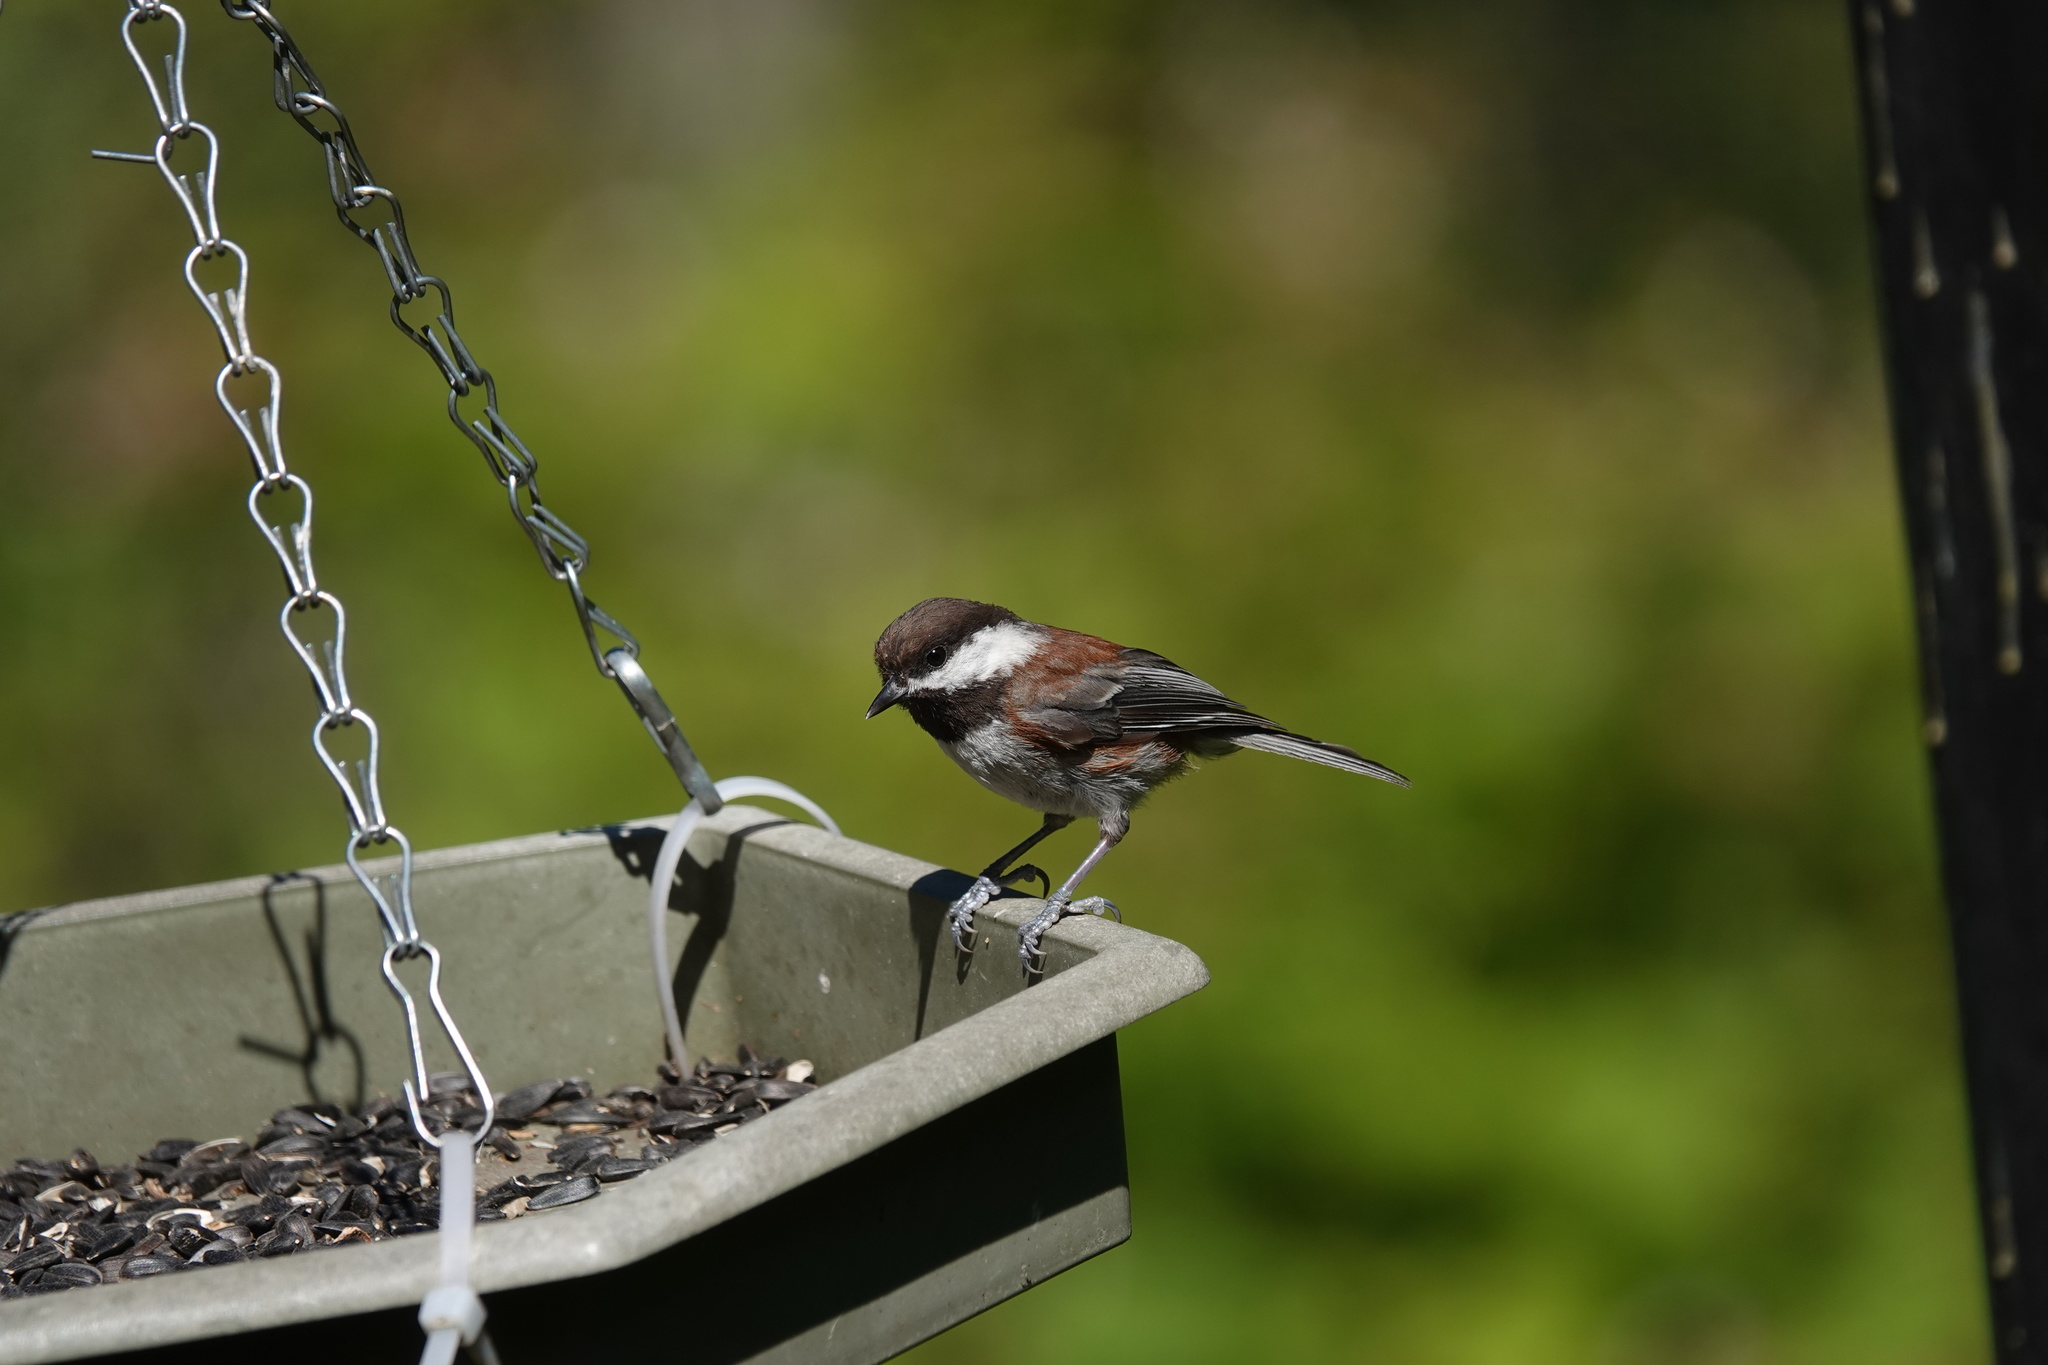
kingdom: Animalia
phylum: Chordata
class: Aves
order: Passeriformes
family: Paridae
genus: Poecile
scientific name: Poecile rufescens
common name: Chestnut-backed chickadee
